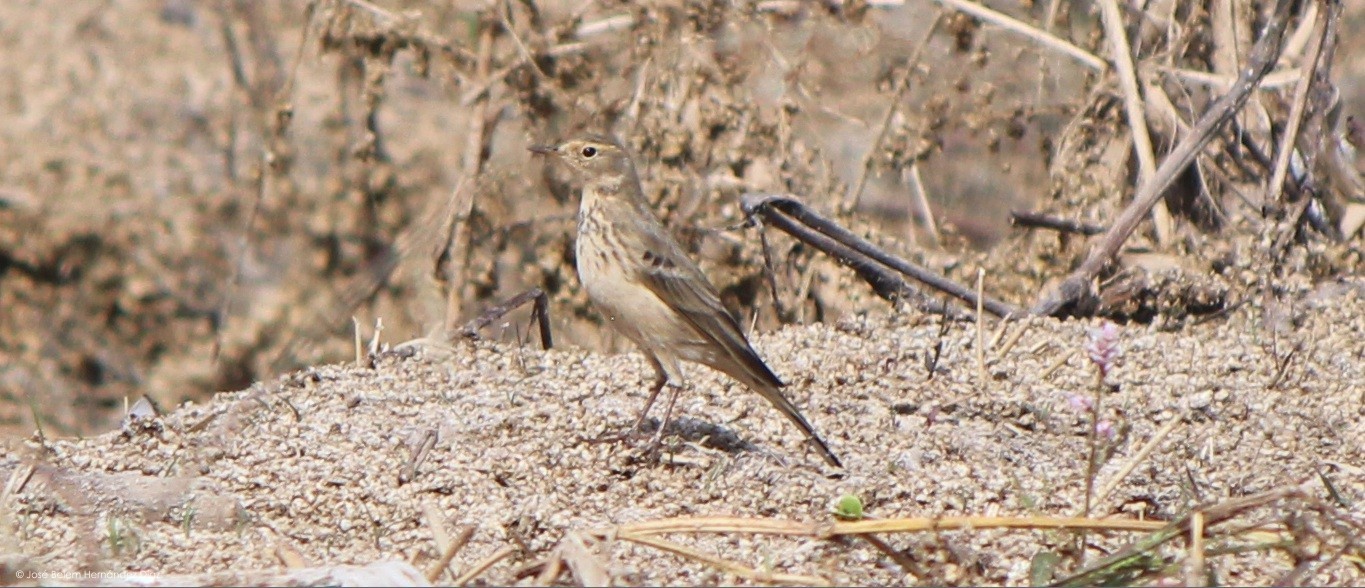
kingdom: Animalia
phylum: Chordata
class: Aves
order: Passeriformes
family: Motacillidae
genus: Anthus
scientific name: Anthus rubescens
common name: Buff-bellied pipit
